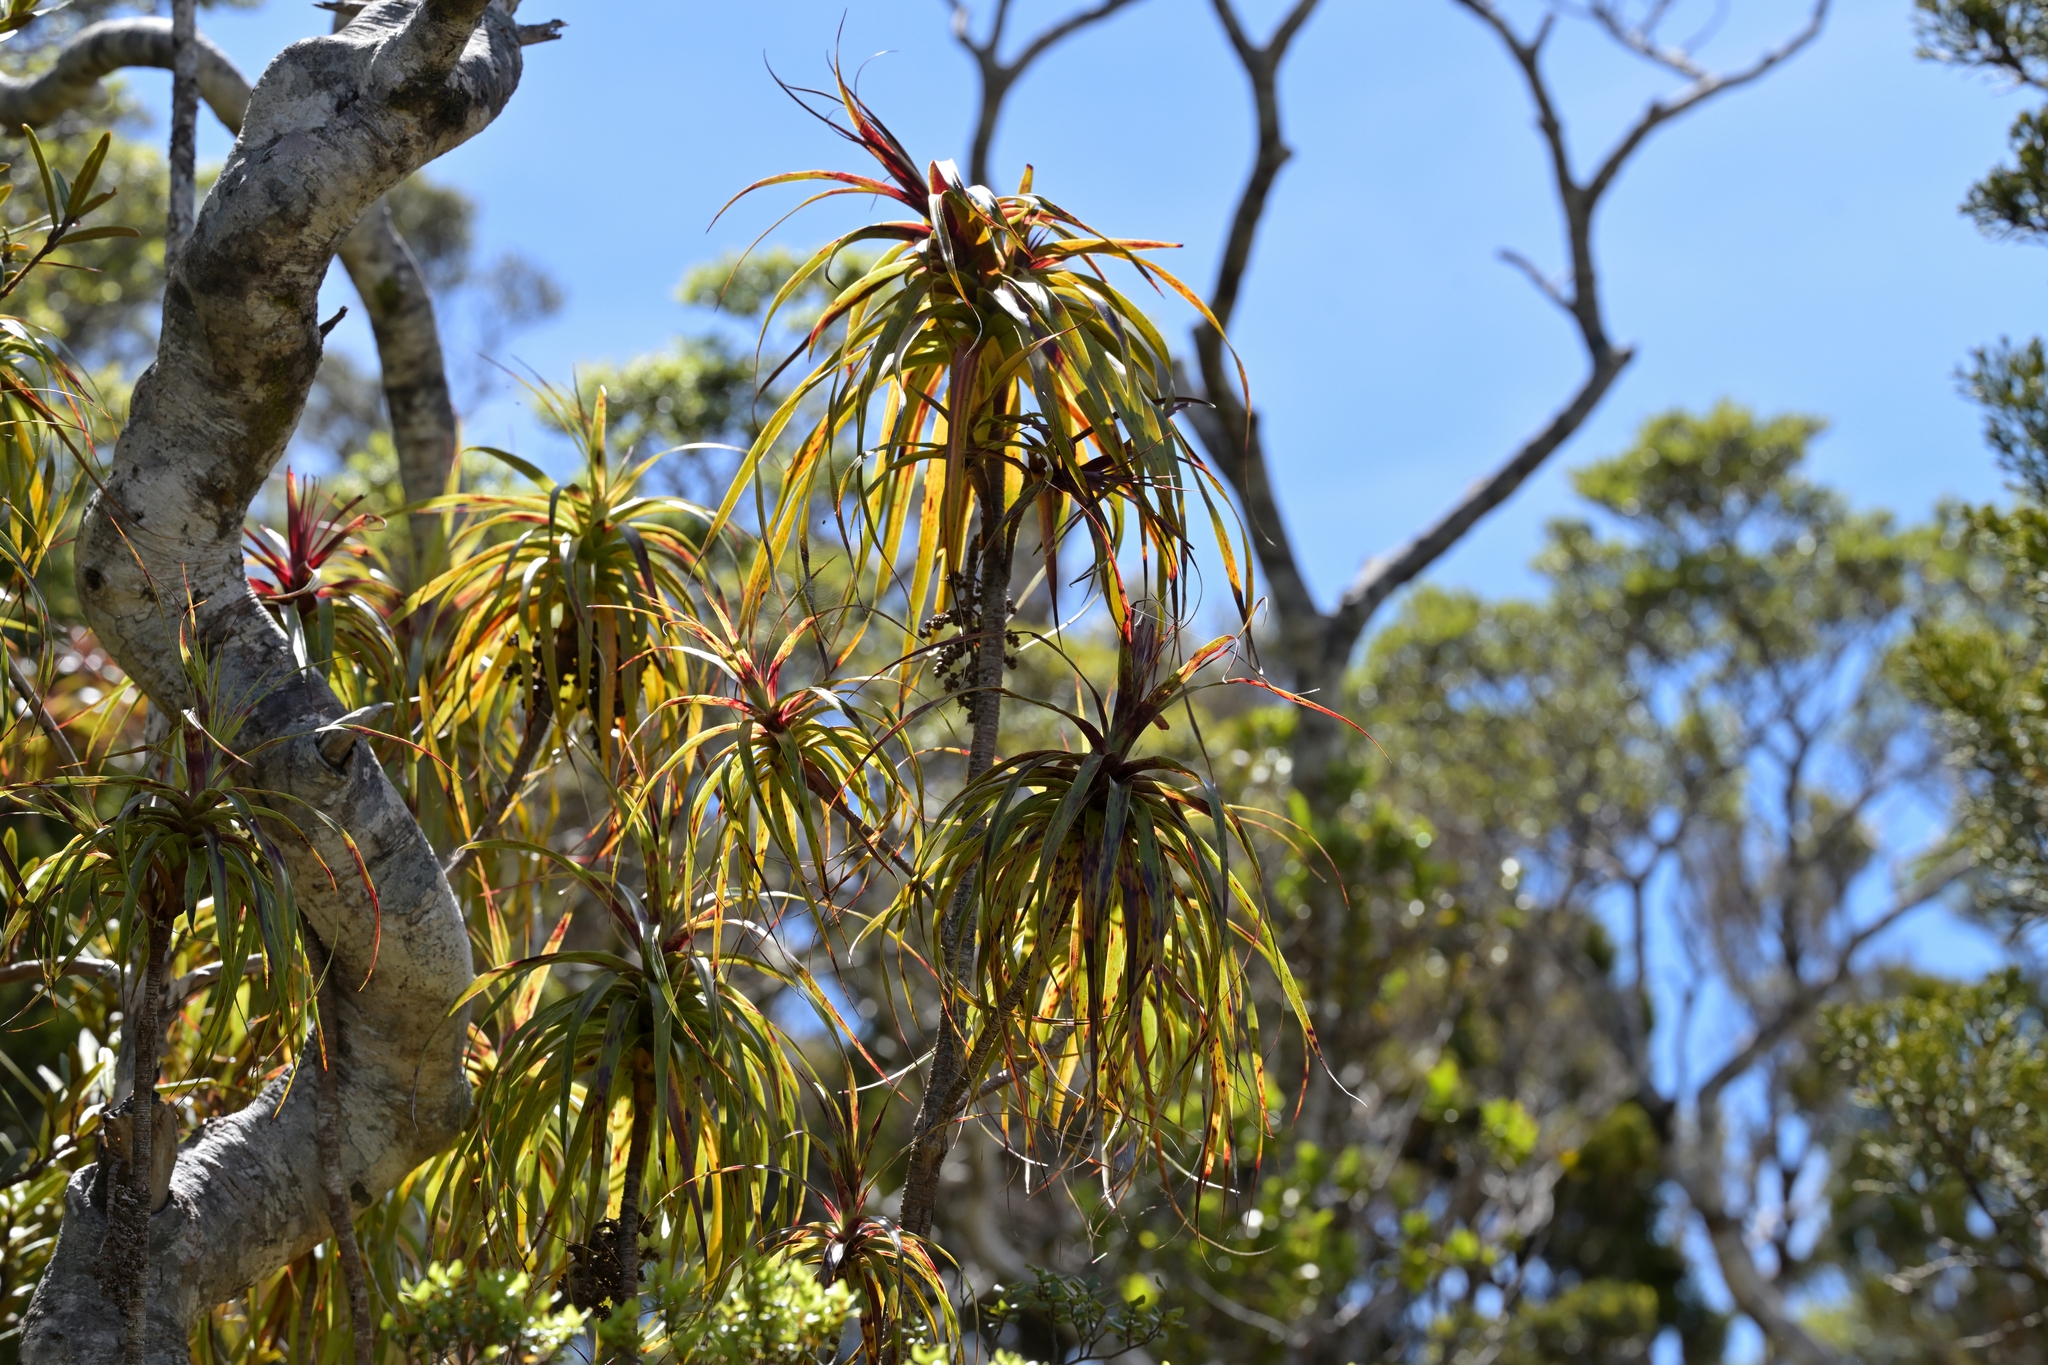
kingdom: Plantae
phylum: Tracheophyta
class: Magnoliopsida
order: Ericales
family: Ericaceae
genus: Dracophyllum
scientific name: Dracophyllum townsonii
